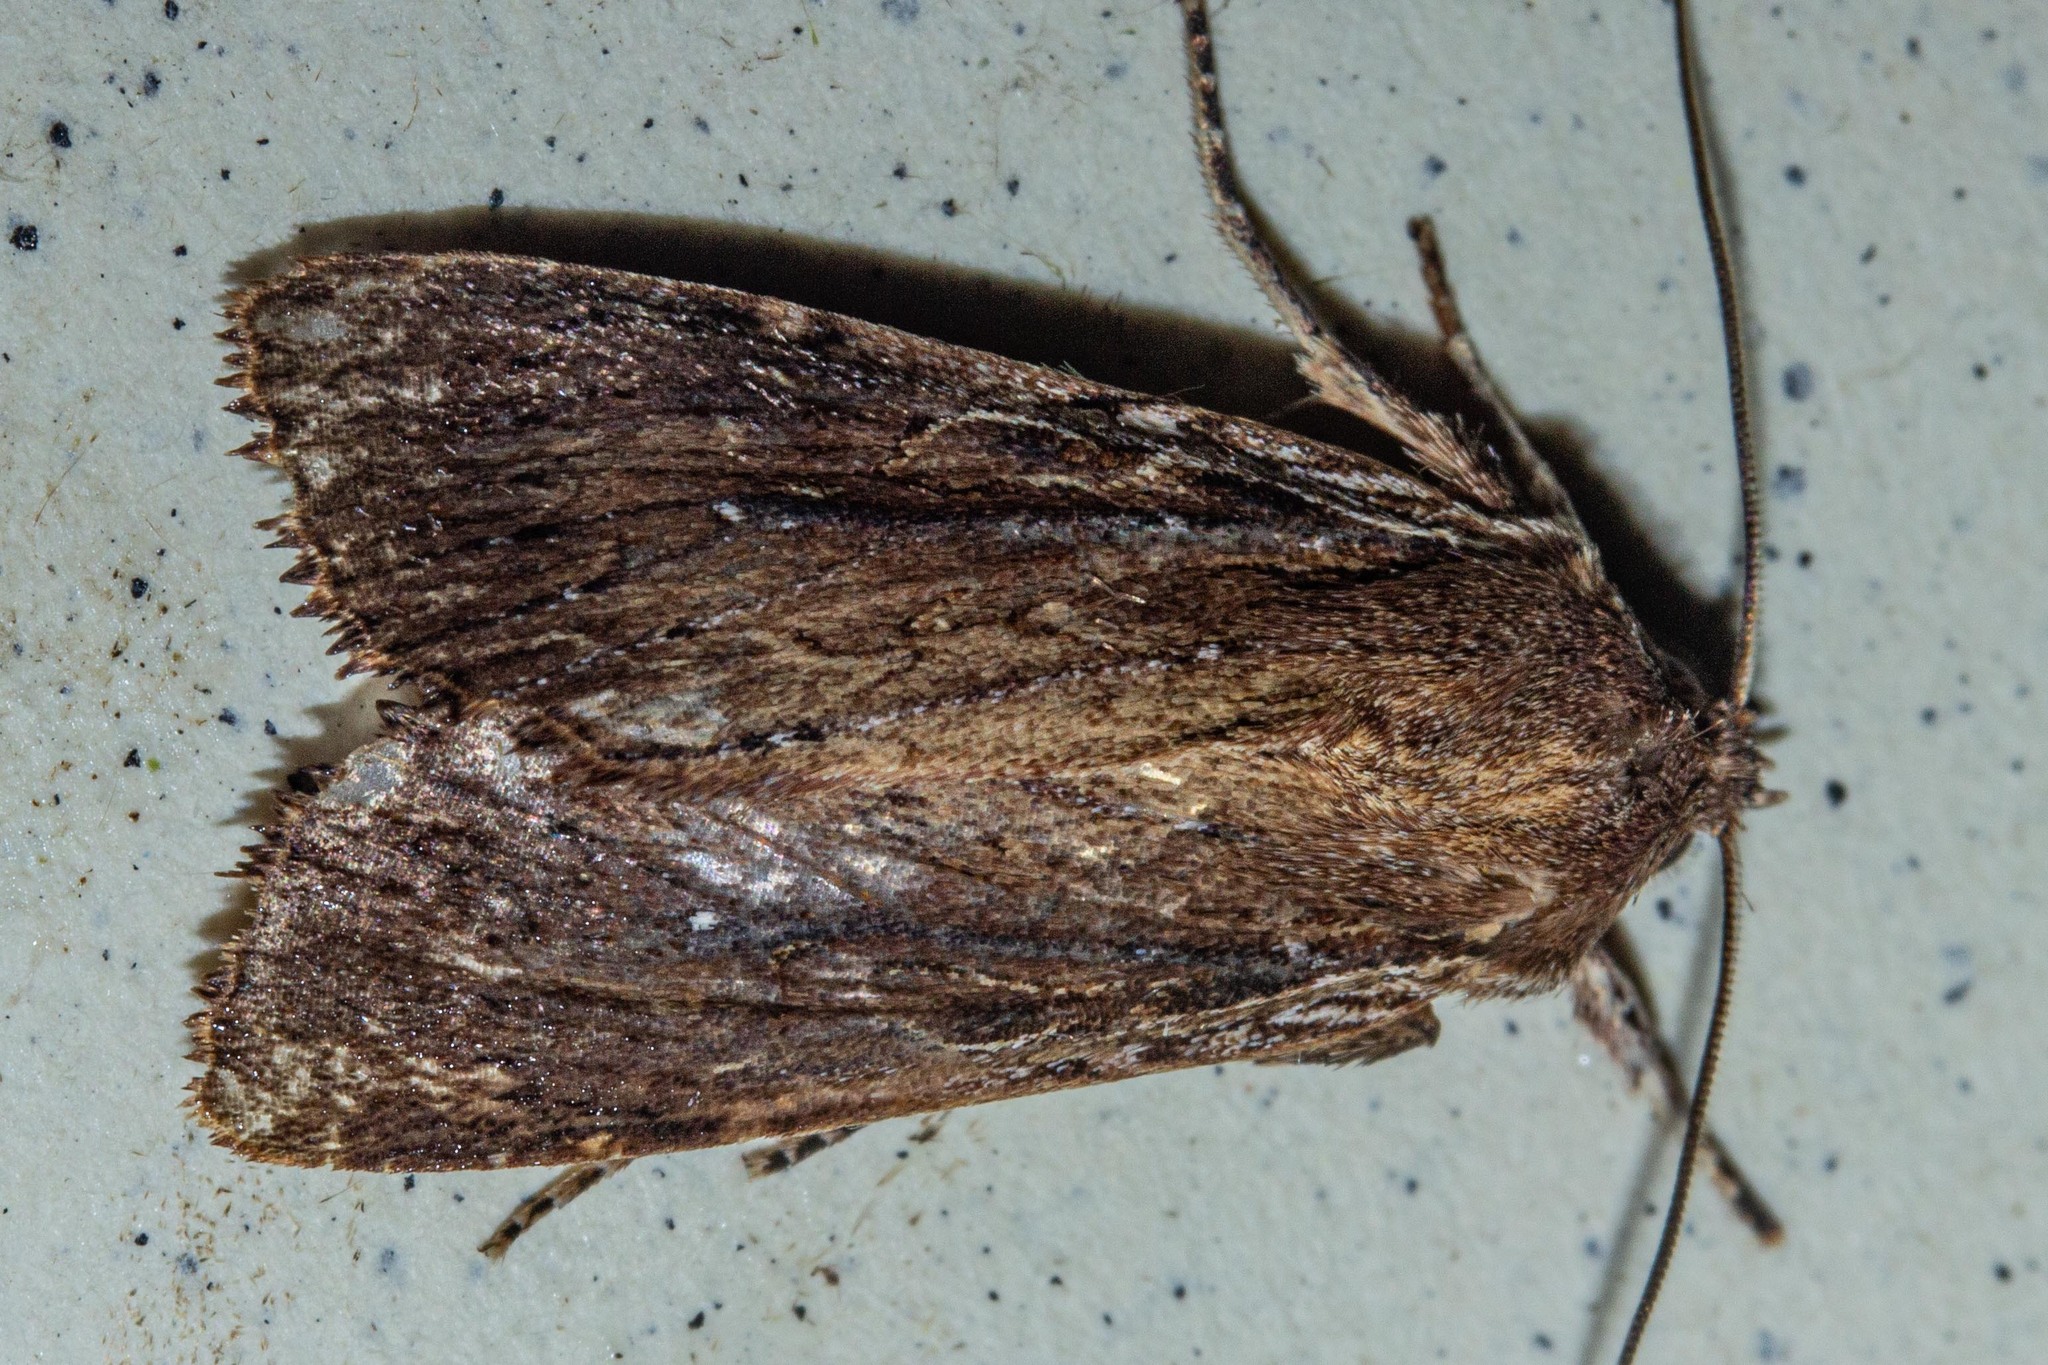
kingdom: Animalia
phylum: Arthropoda
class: Insecta
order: Lepidoptera
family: Noctuidae
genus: Ichneutica
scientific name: Ichneutica
